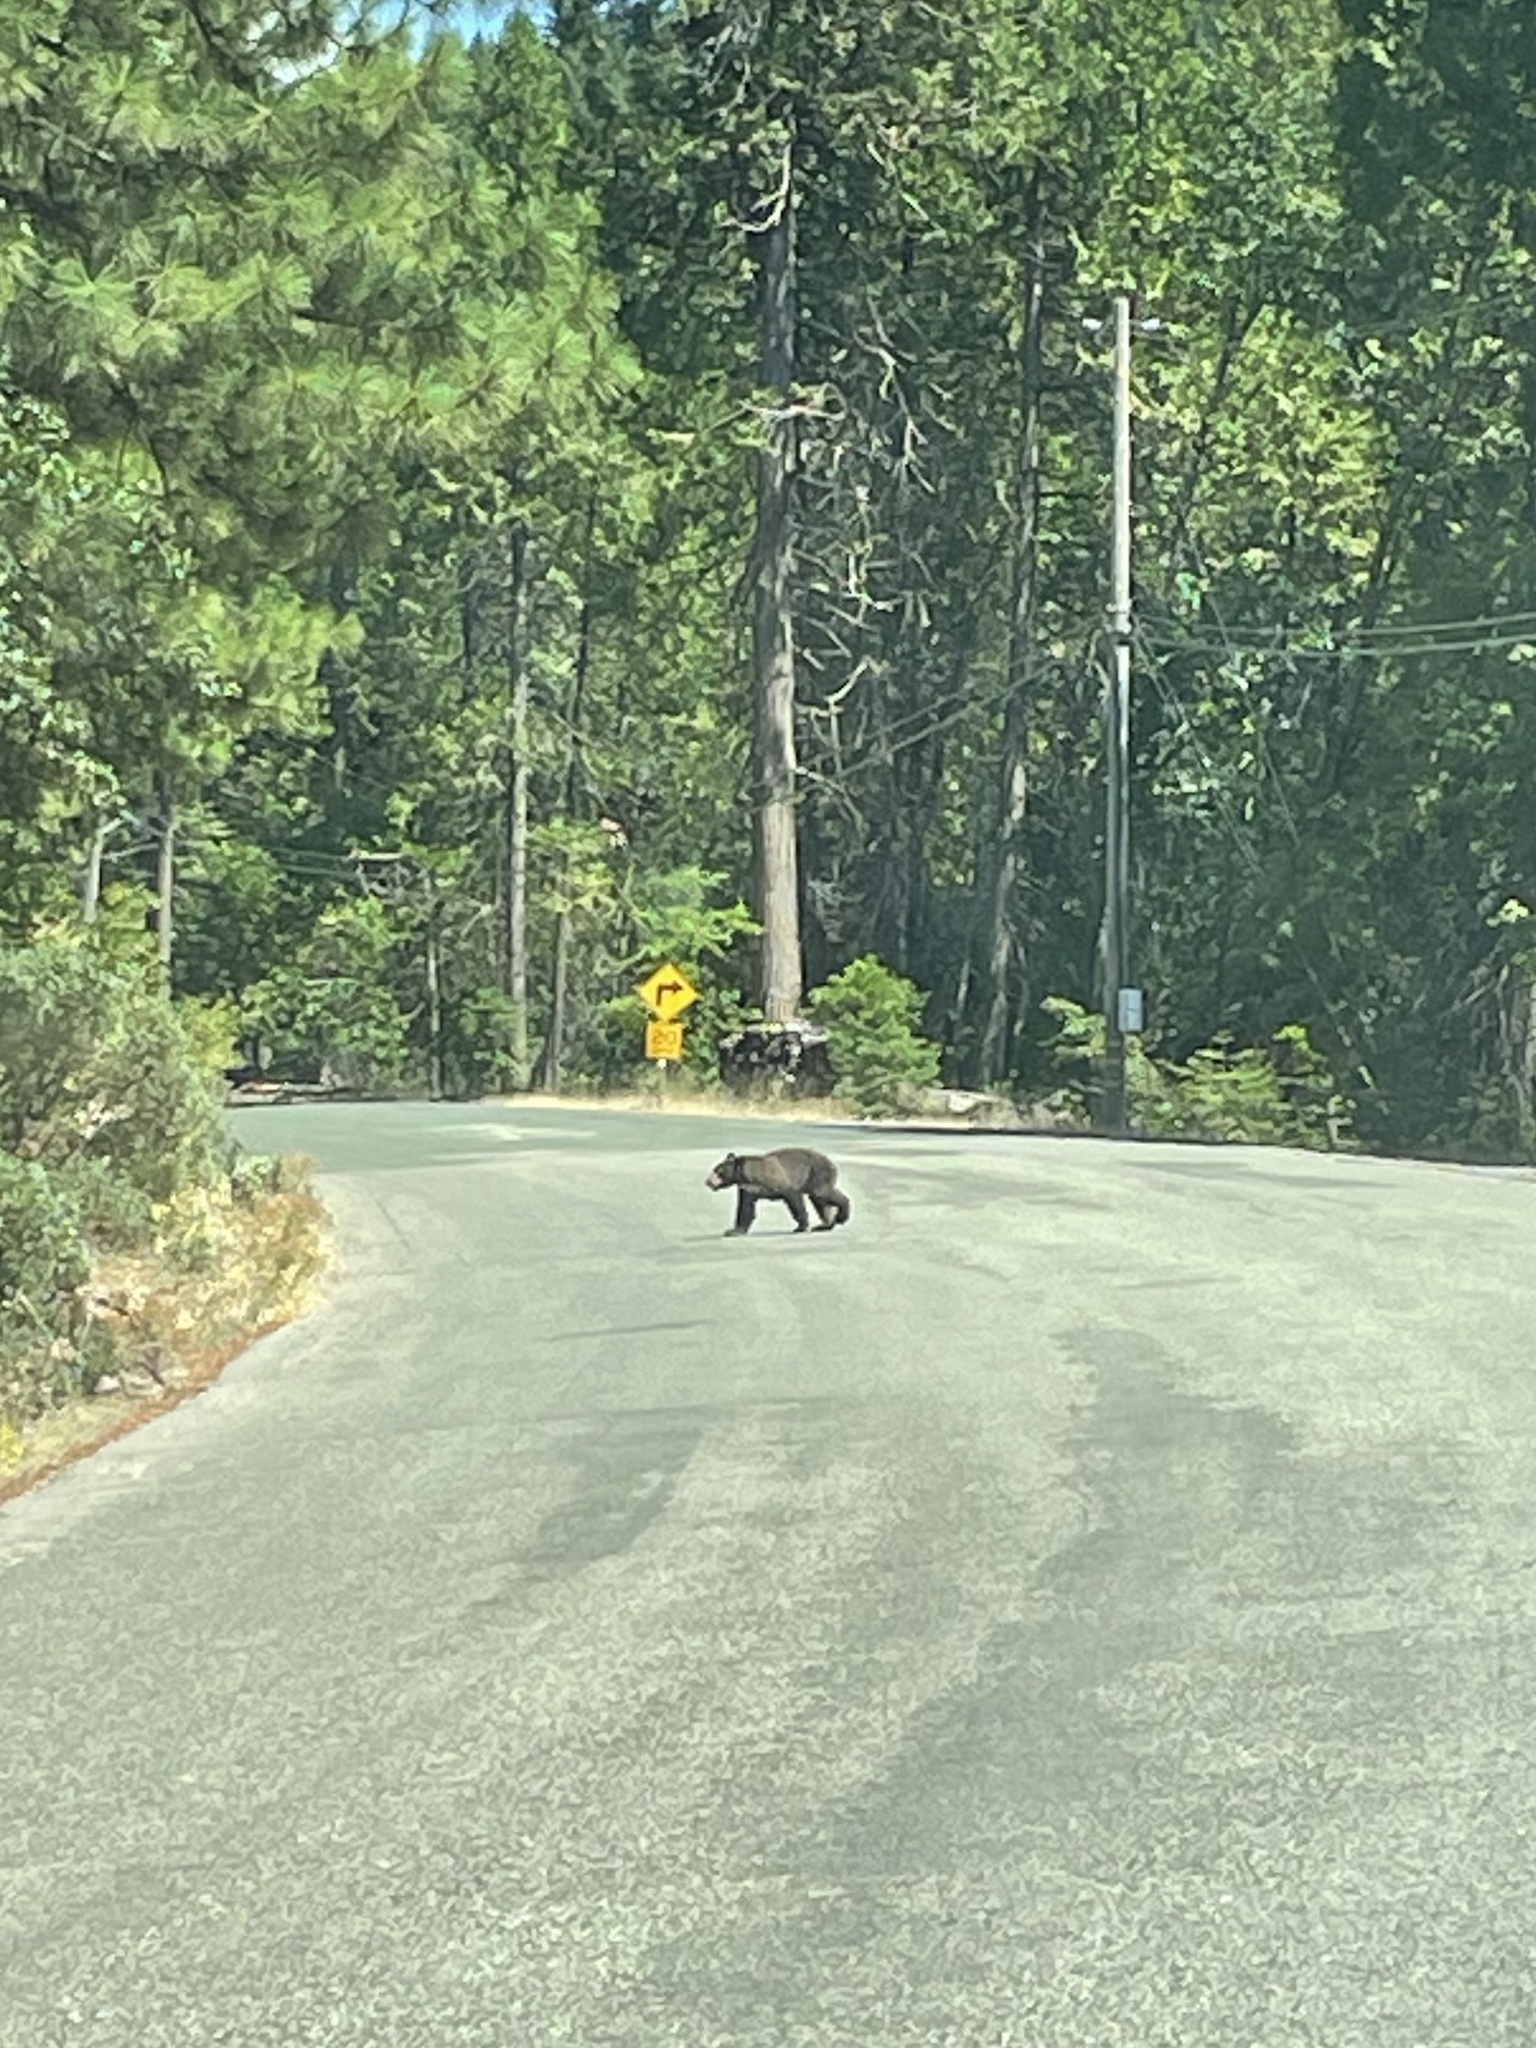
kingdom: Animalia
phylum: Chordata
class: Mammalia
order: Carnivora
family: Ursidae
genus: Ursus
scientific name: Ursus americanus
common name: American black bear
